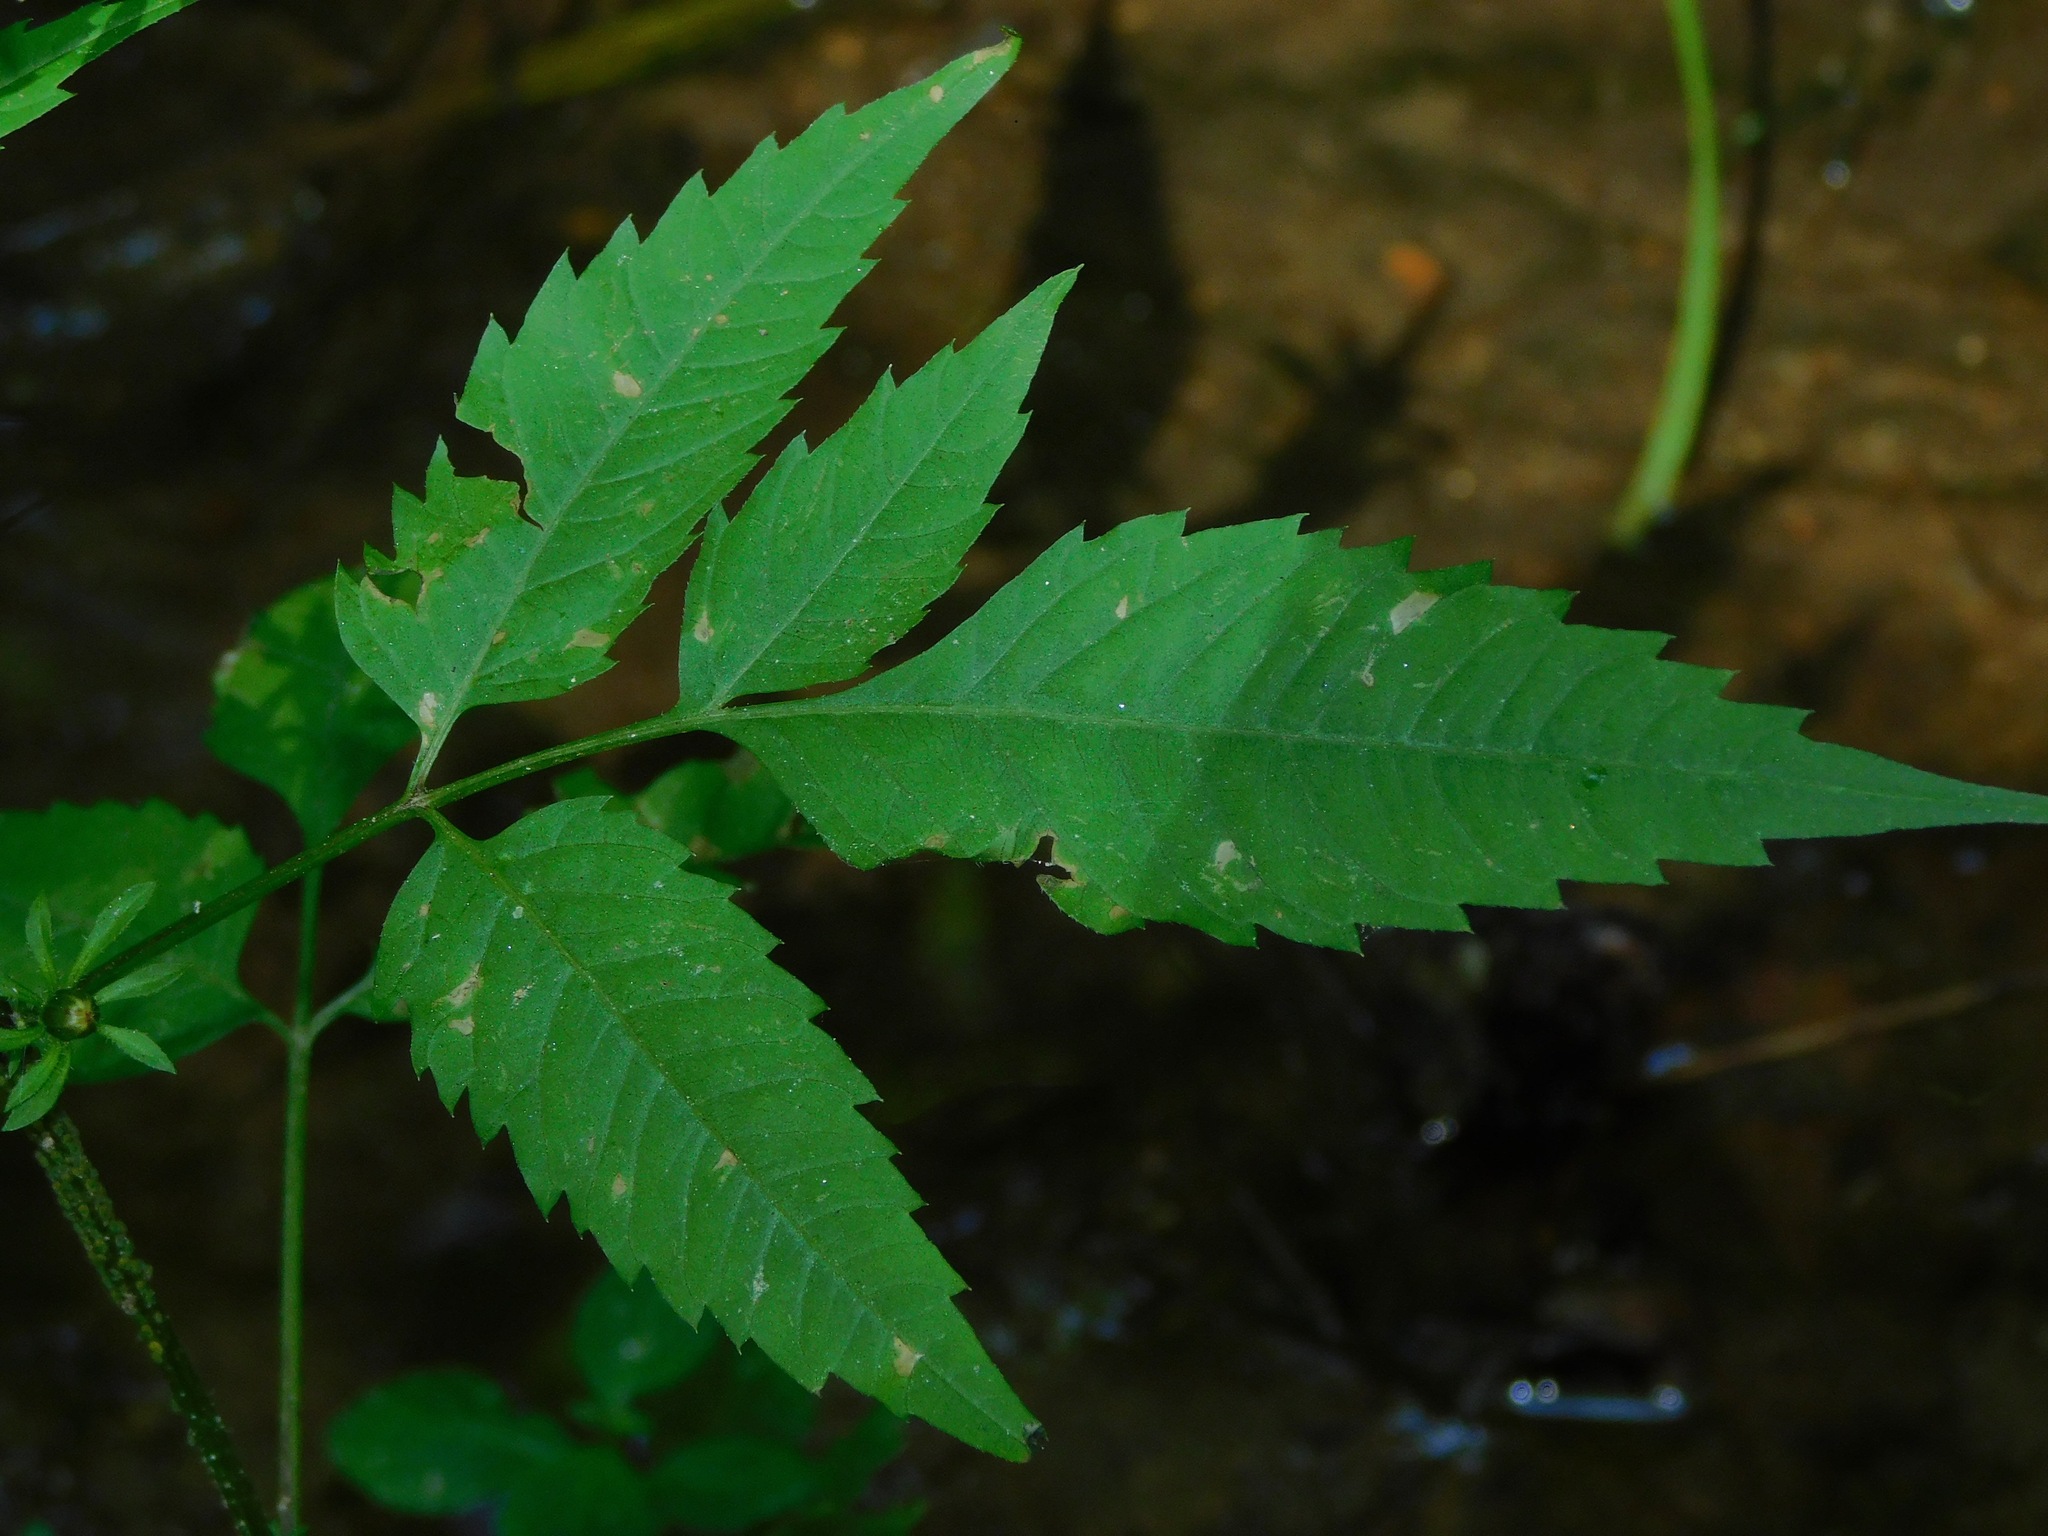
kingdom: Plantae
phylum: Tracheophyta
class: Magnoliopsida
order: Asterales
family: Asteraceae
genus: Bidens
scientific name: Bidens frondosa
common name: Beggarticks
